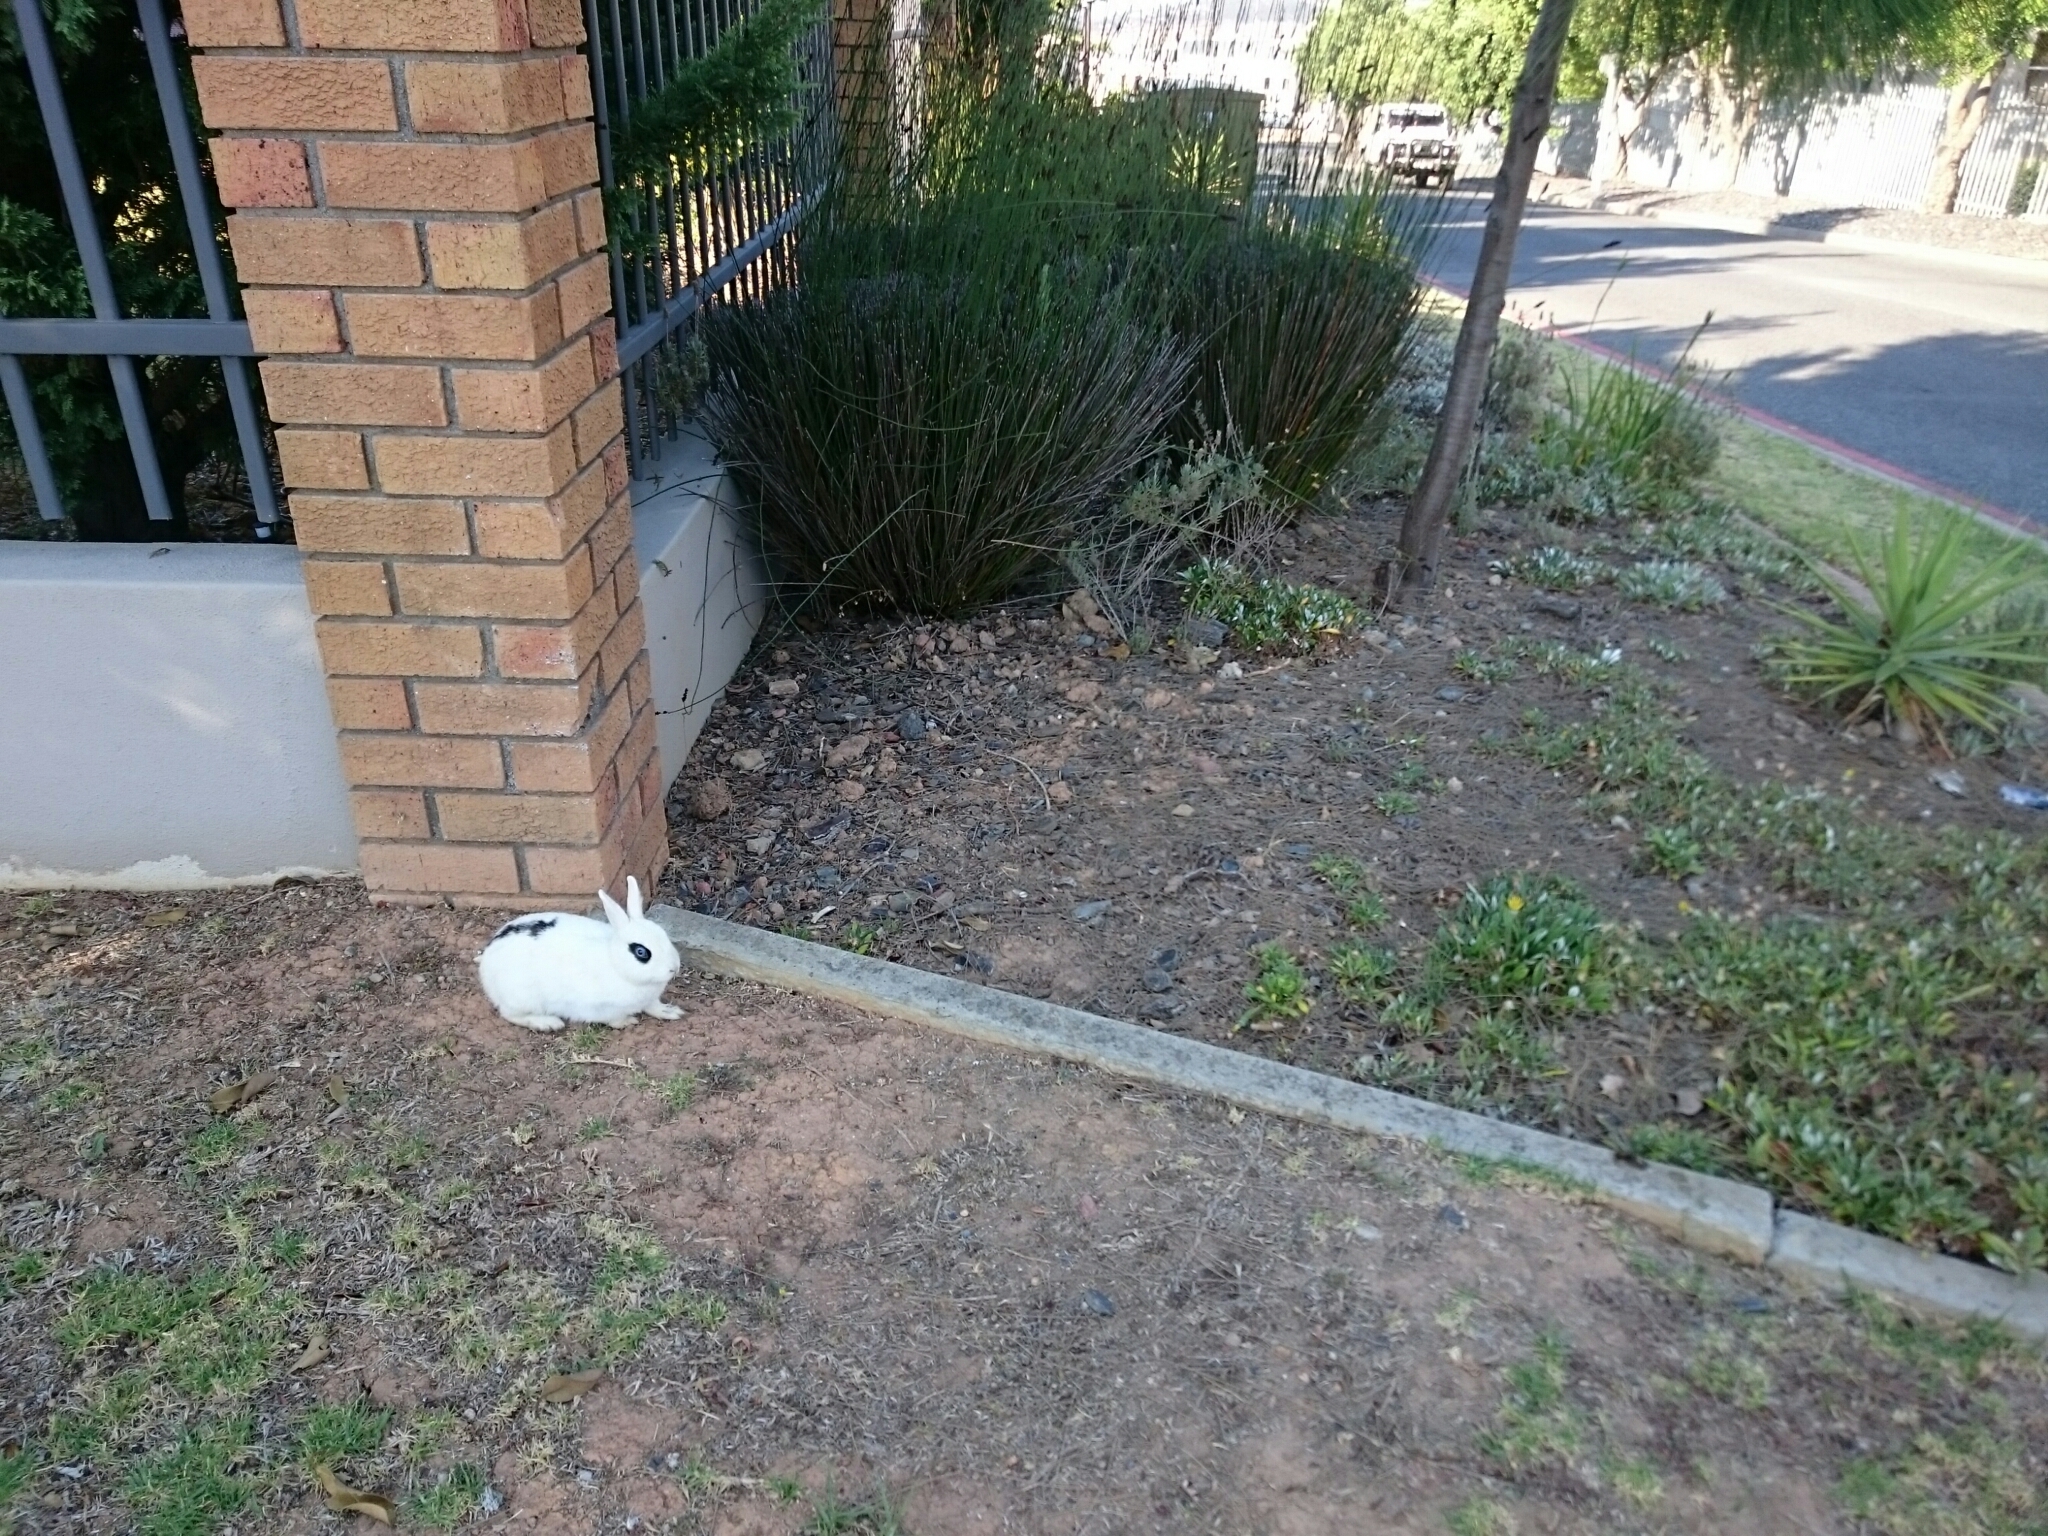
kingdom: Animalia
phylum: Chordata
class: Mammalia
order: Lagomorpha
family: Leporidae
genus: Oryctolagus
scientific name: Oryctolagus cuniculus
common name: European rabbit
